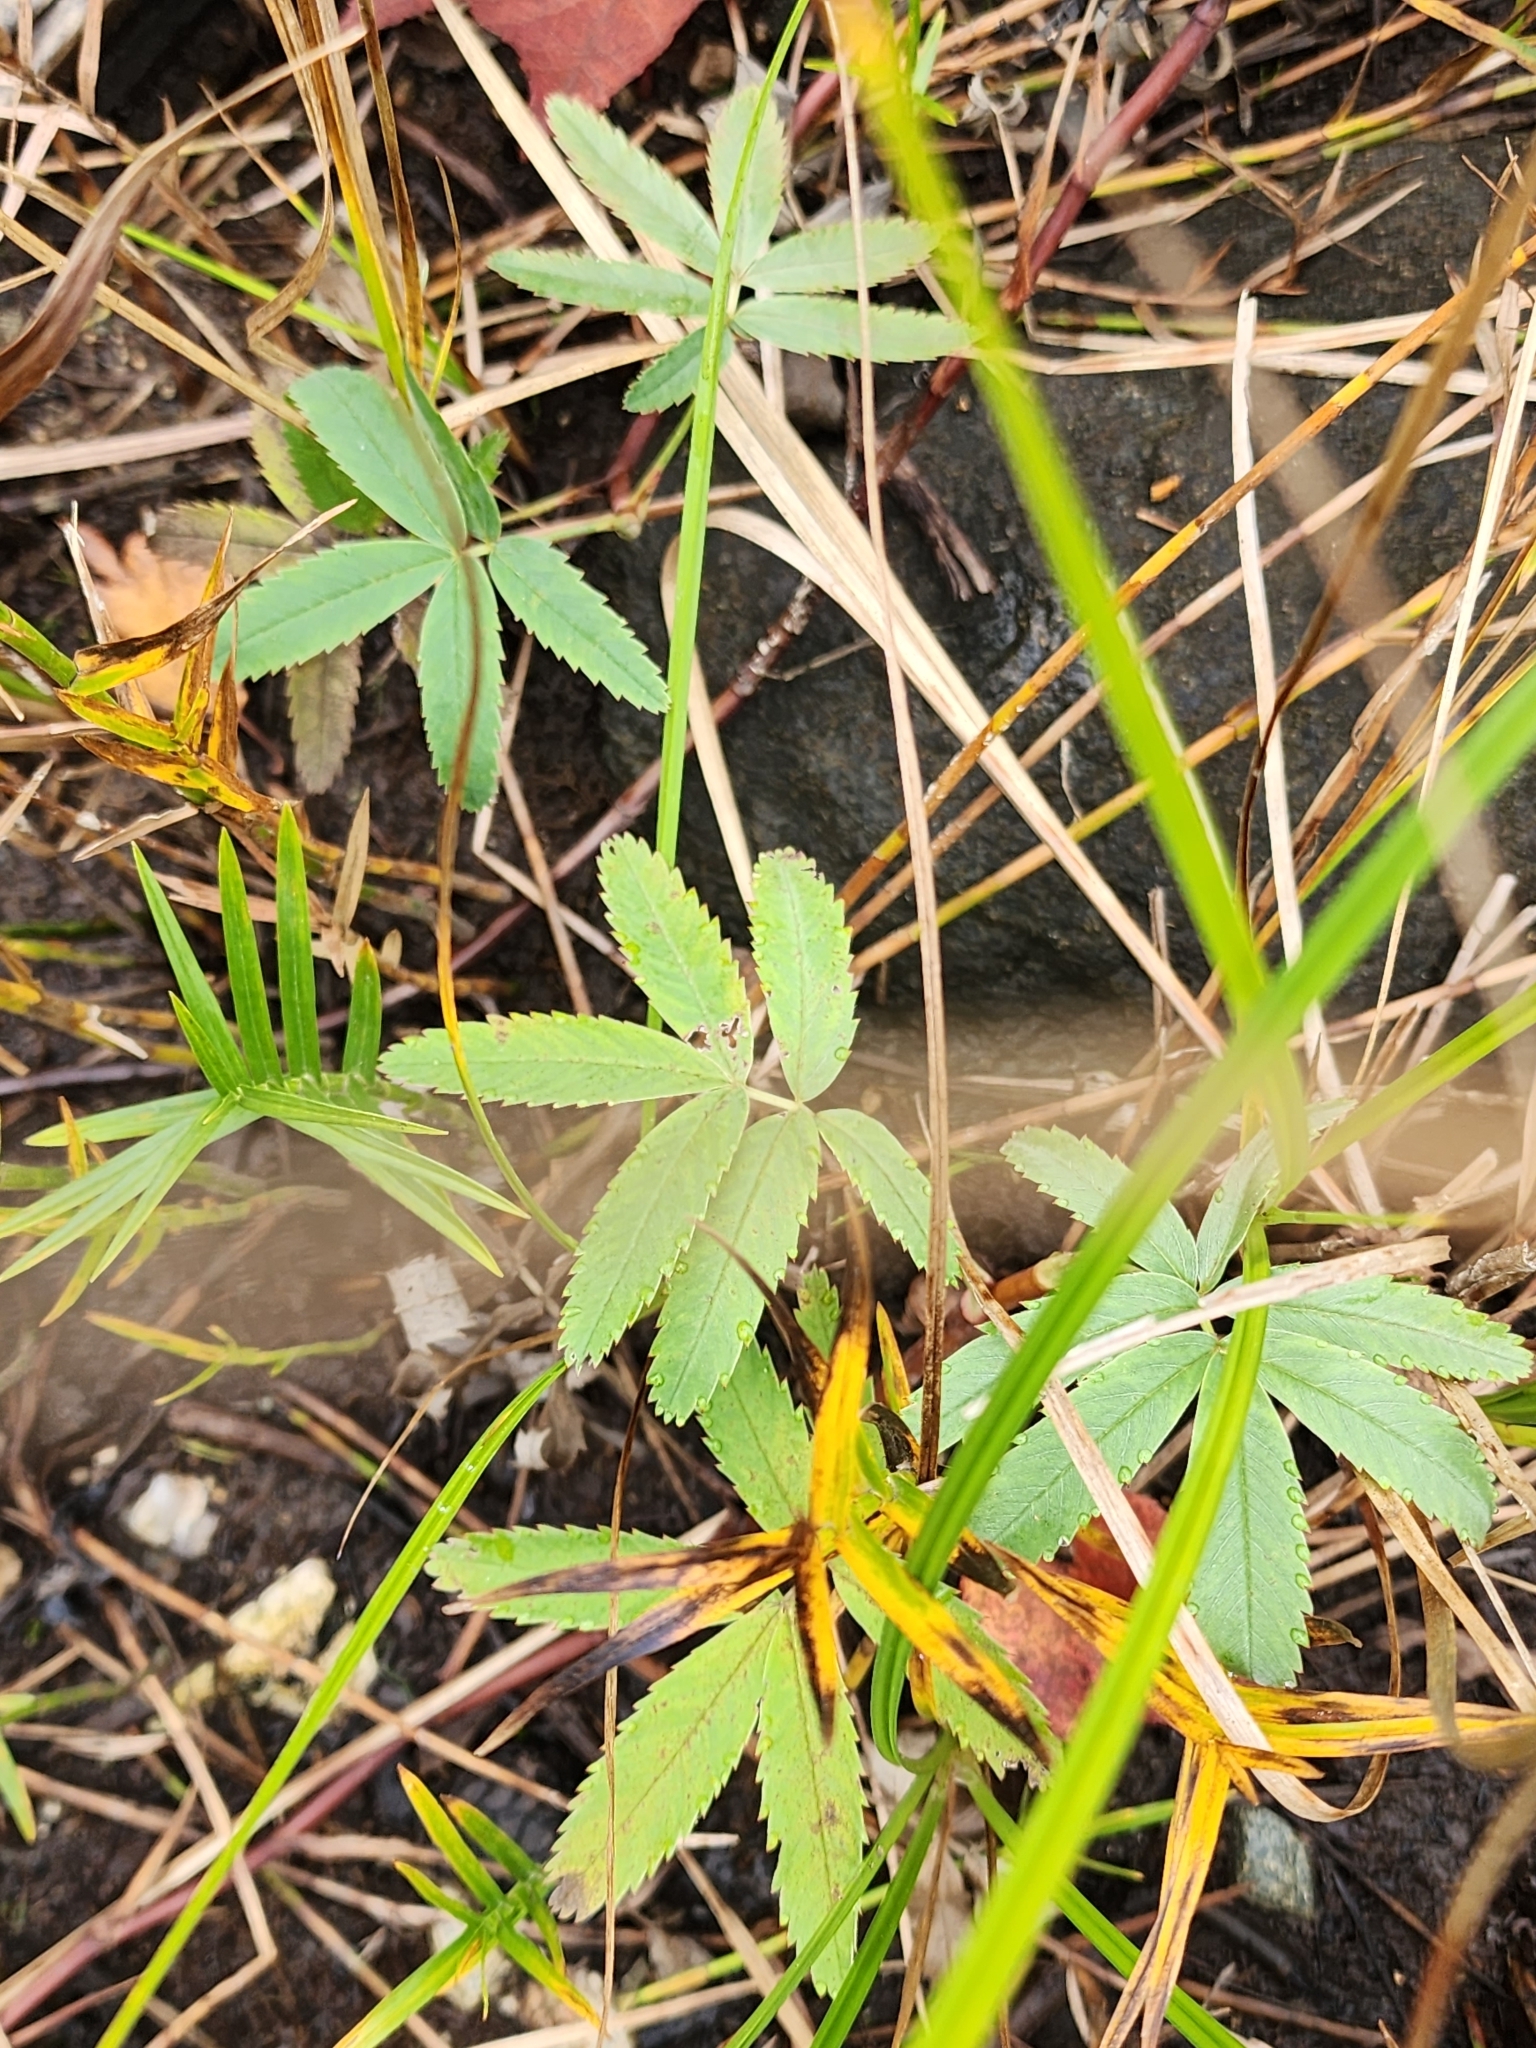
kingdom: Plantae
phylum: Tracheophyta
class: Magnoliopsida
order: Rosales
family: Rosaceae
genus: Comarum
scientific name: Comarum palustre
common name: Marsh cinquefoil
